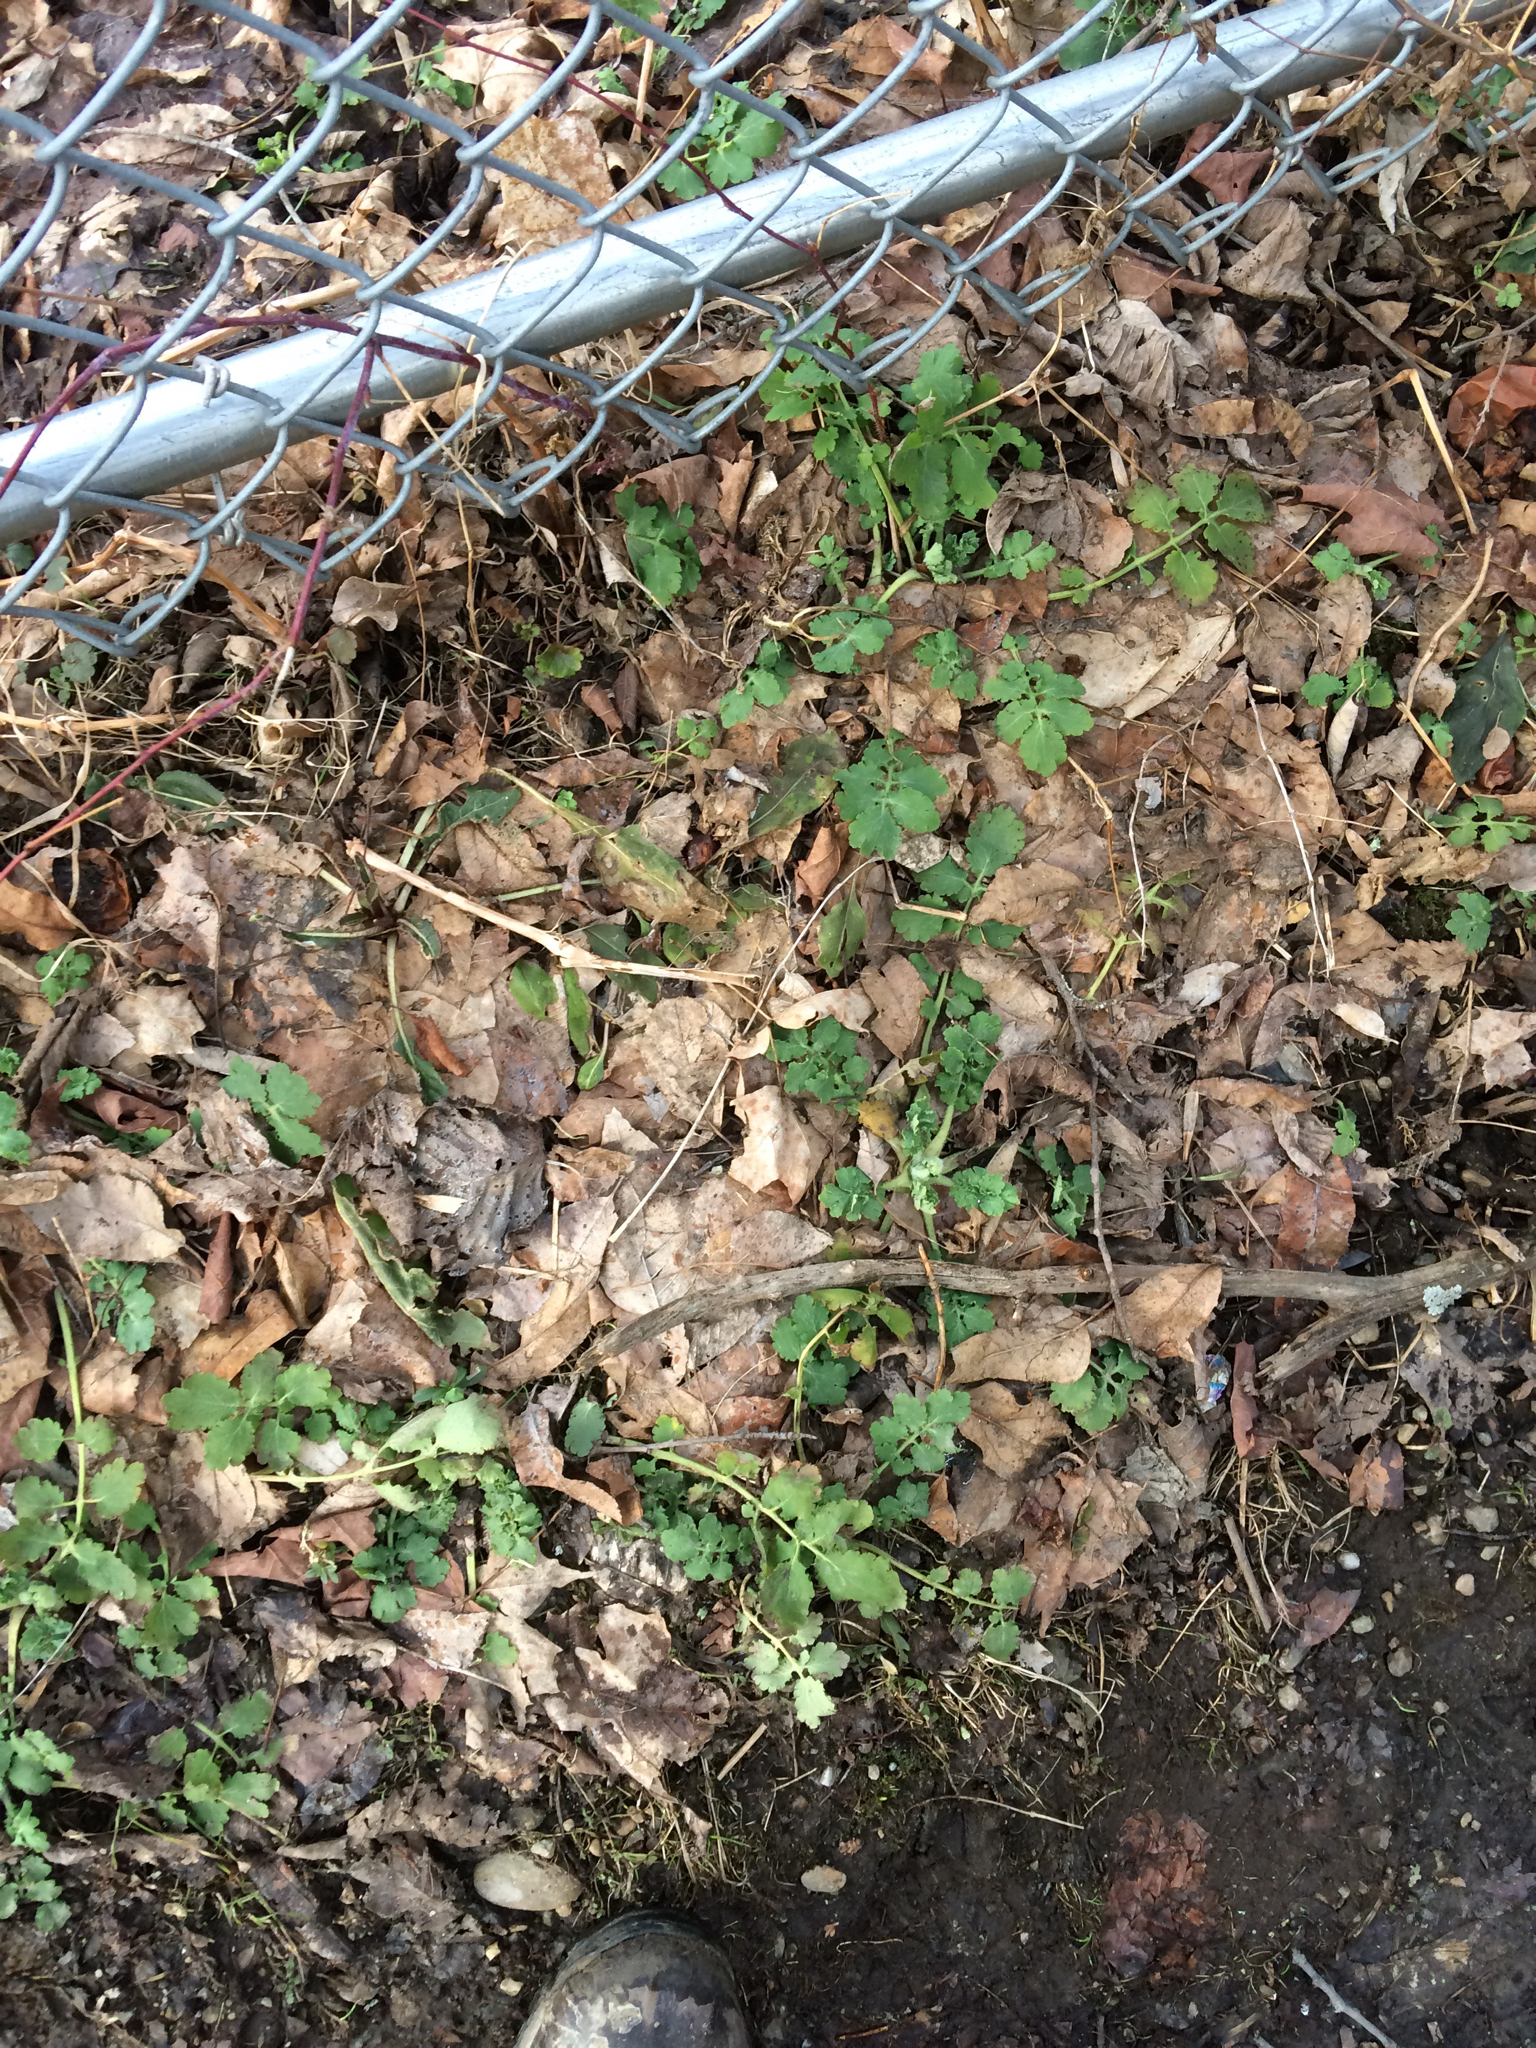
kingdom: Plantae
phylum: Tracheophyta
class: Magnoliopsida
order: Ranunculales
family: Papaveraceae
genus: Chelidonium
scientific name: Chelidonium majus
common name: Greater celandine
